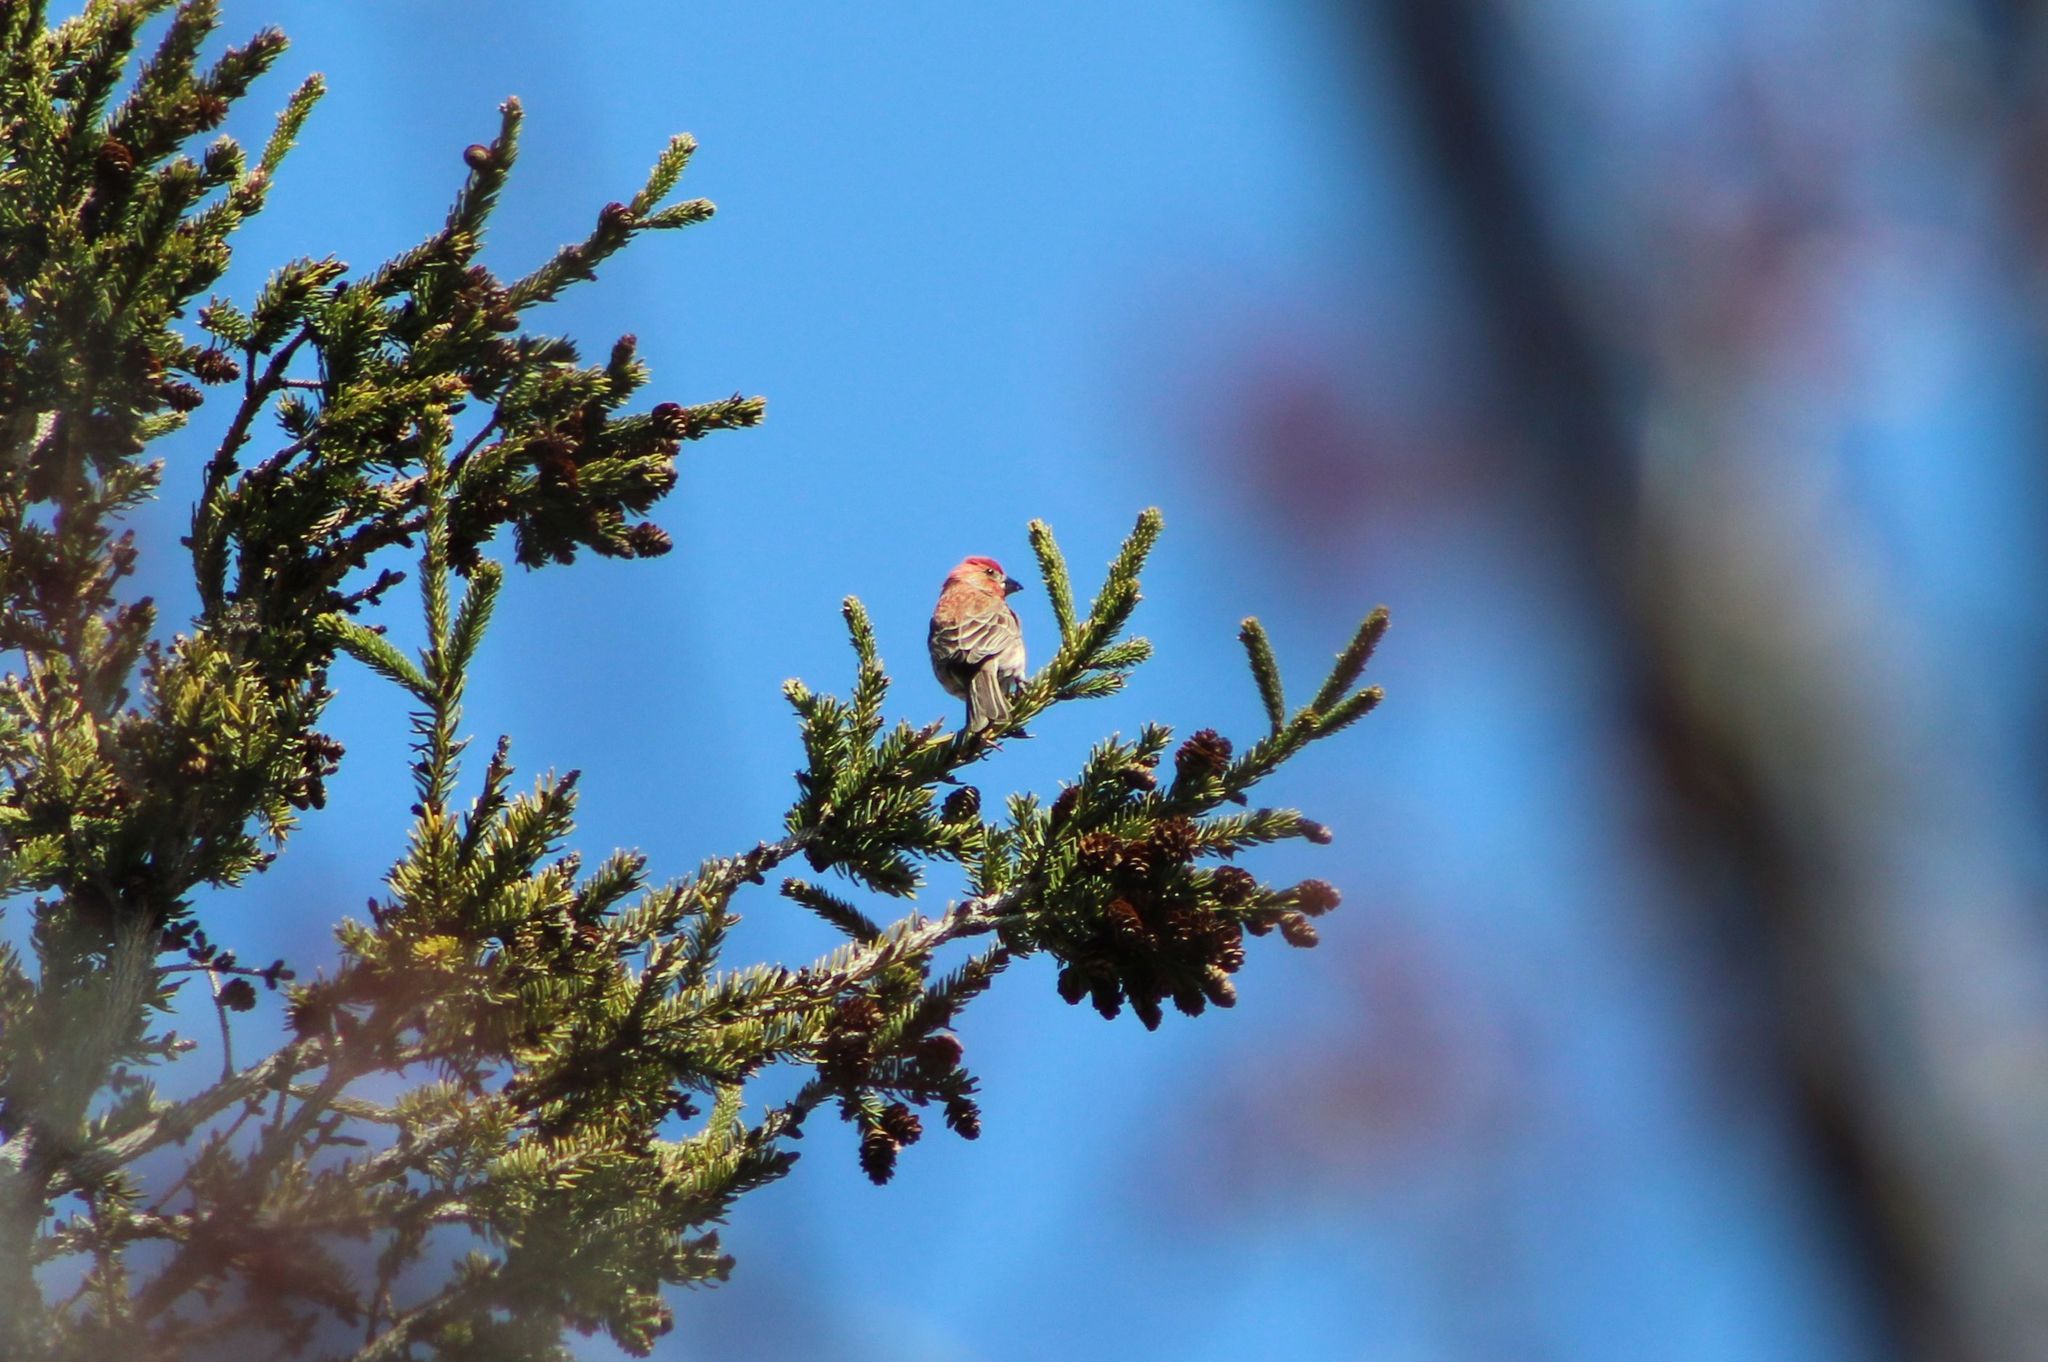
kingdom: Animalia
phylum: Chordata
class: Aves
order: Passeriformes
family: Fringillidae
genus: Haemorhous
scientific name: Haemorhous mexicanus
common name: House finch
